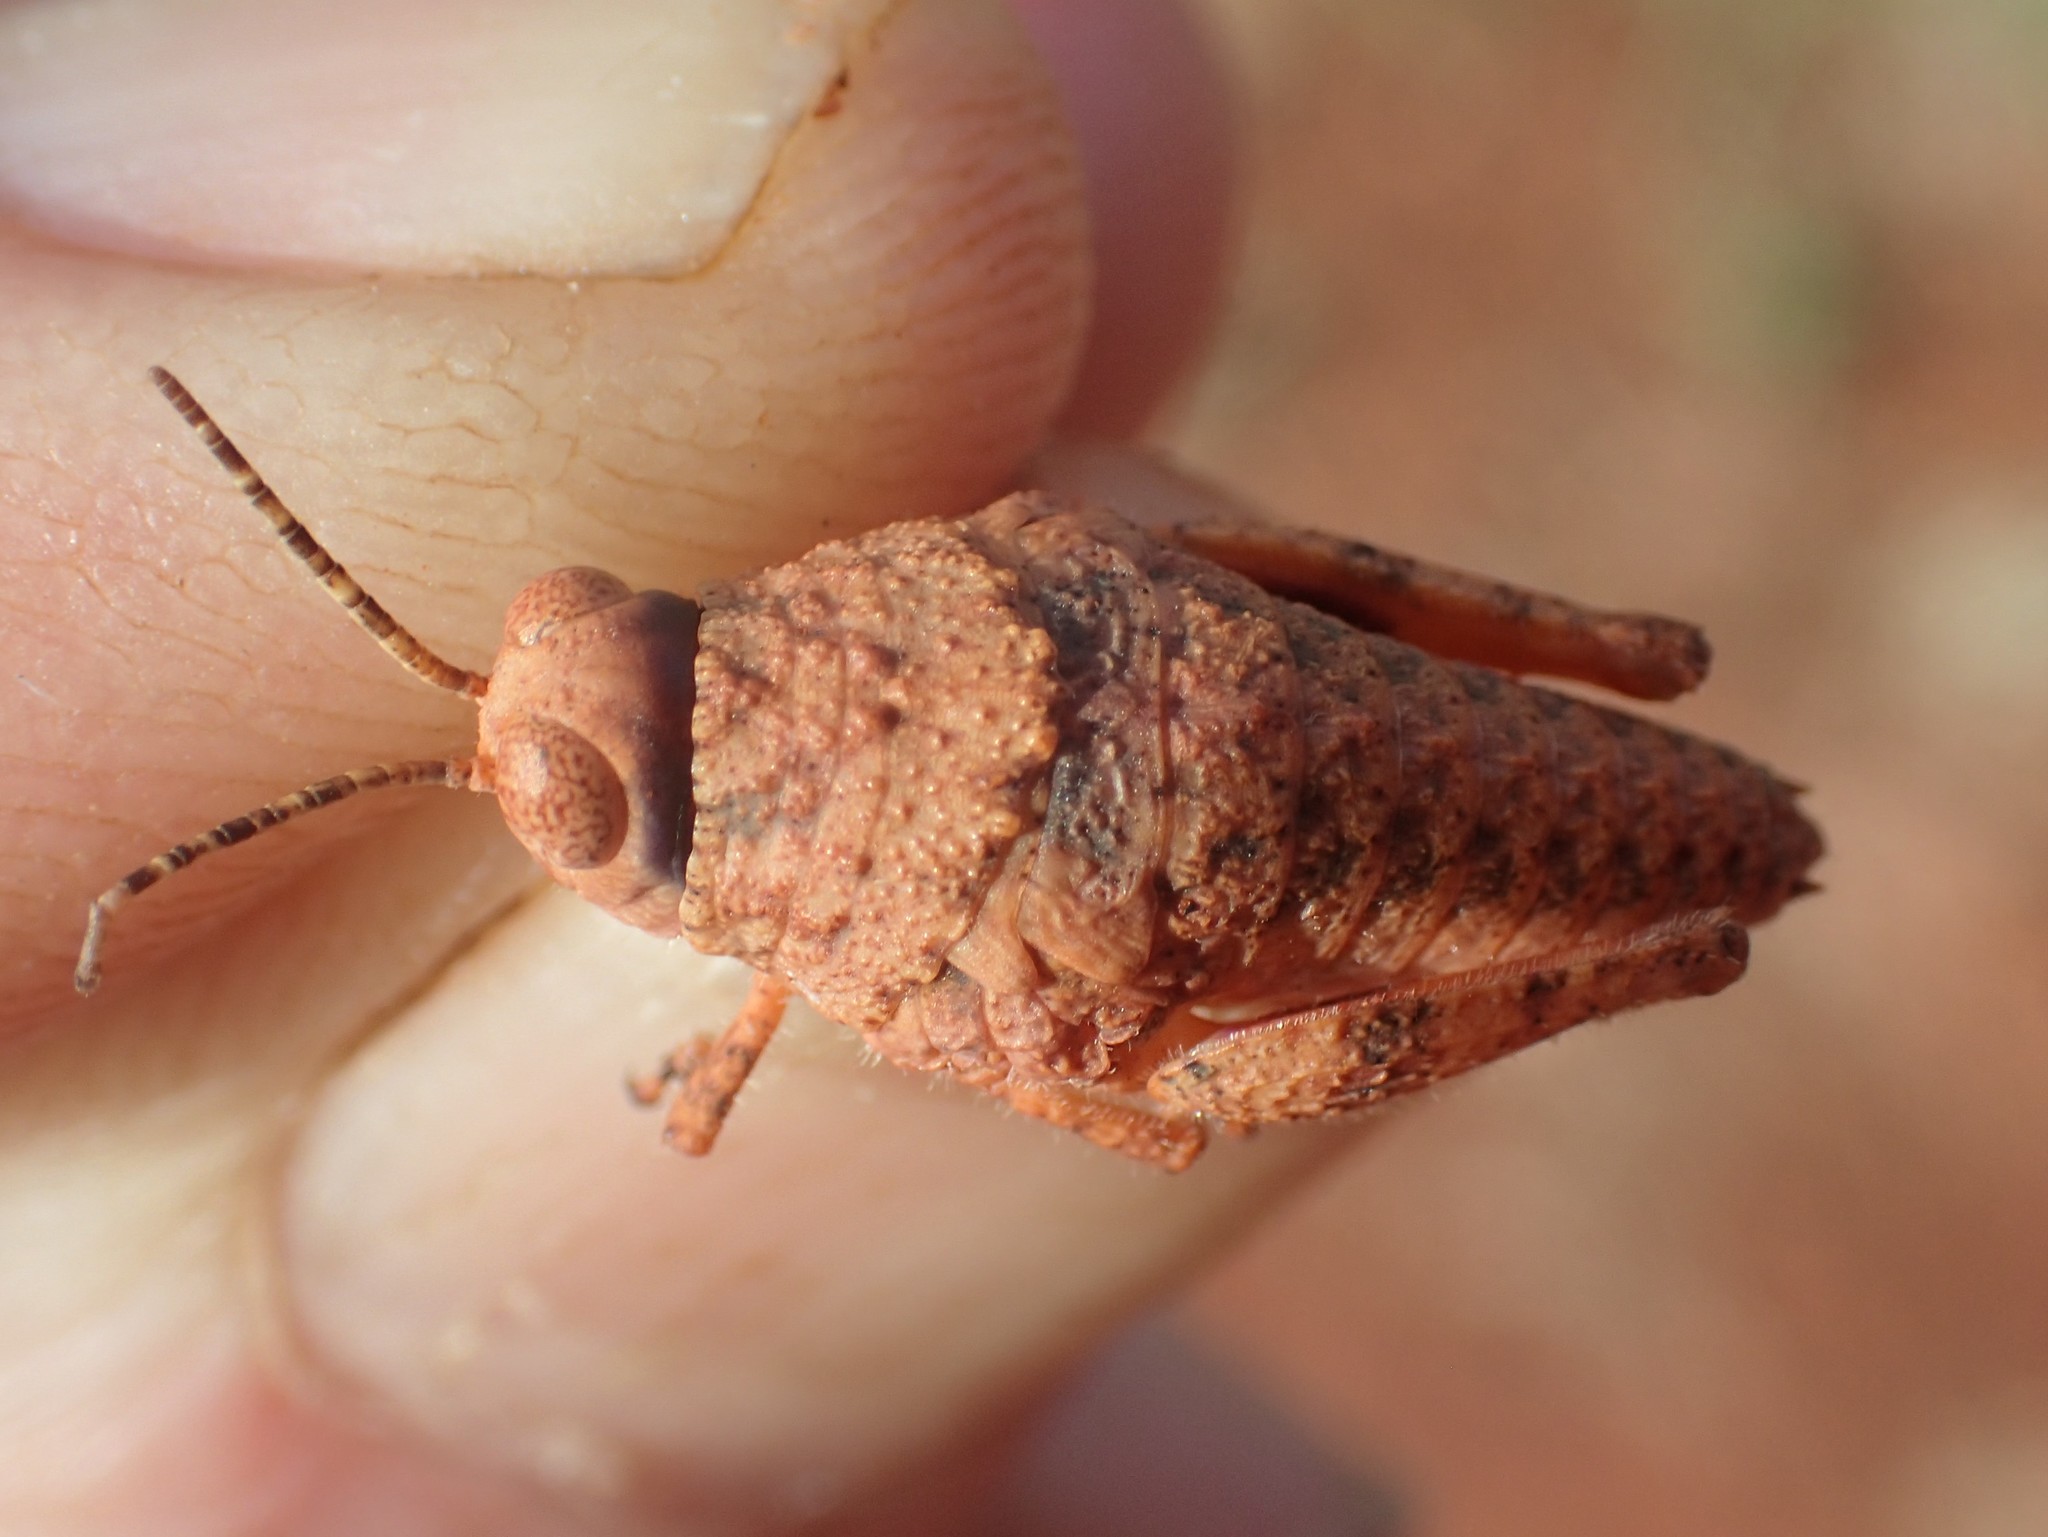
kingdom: Animalia
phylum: Arthropoda
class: Insecta
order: Orthoptera
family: Acrididae
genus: Buforania
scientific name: Buforania crassa
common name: Common toadhopper
